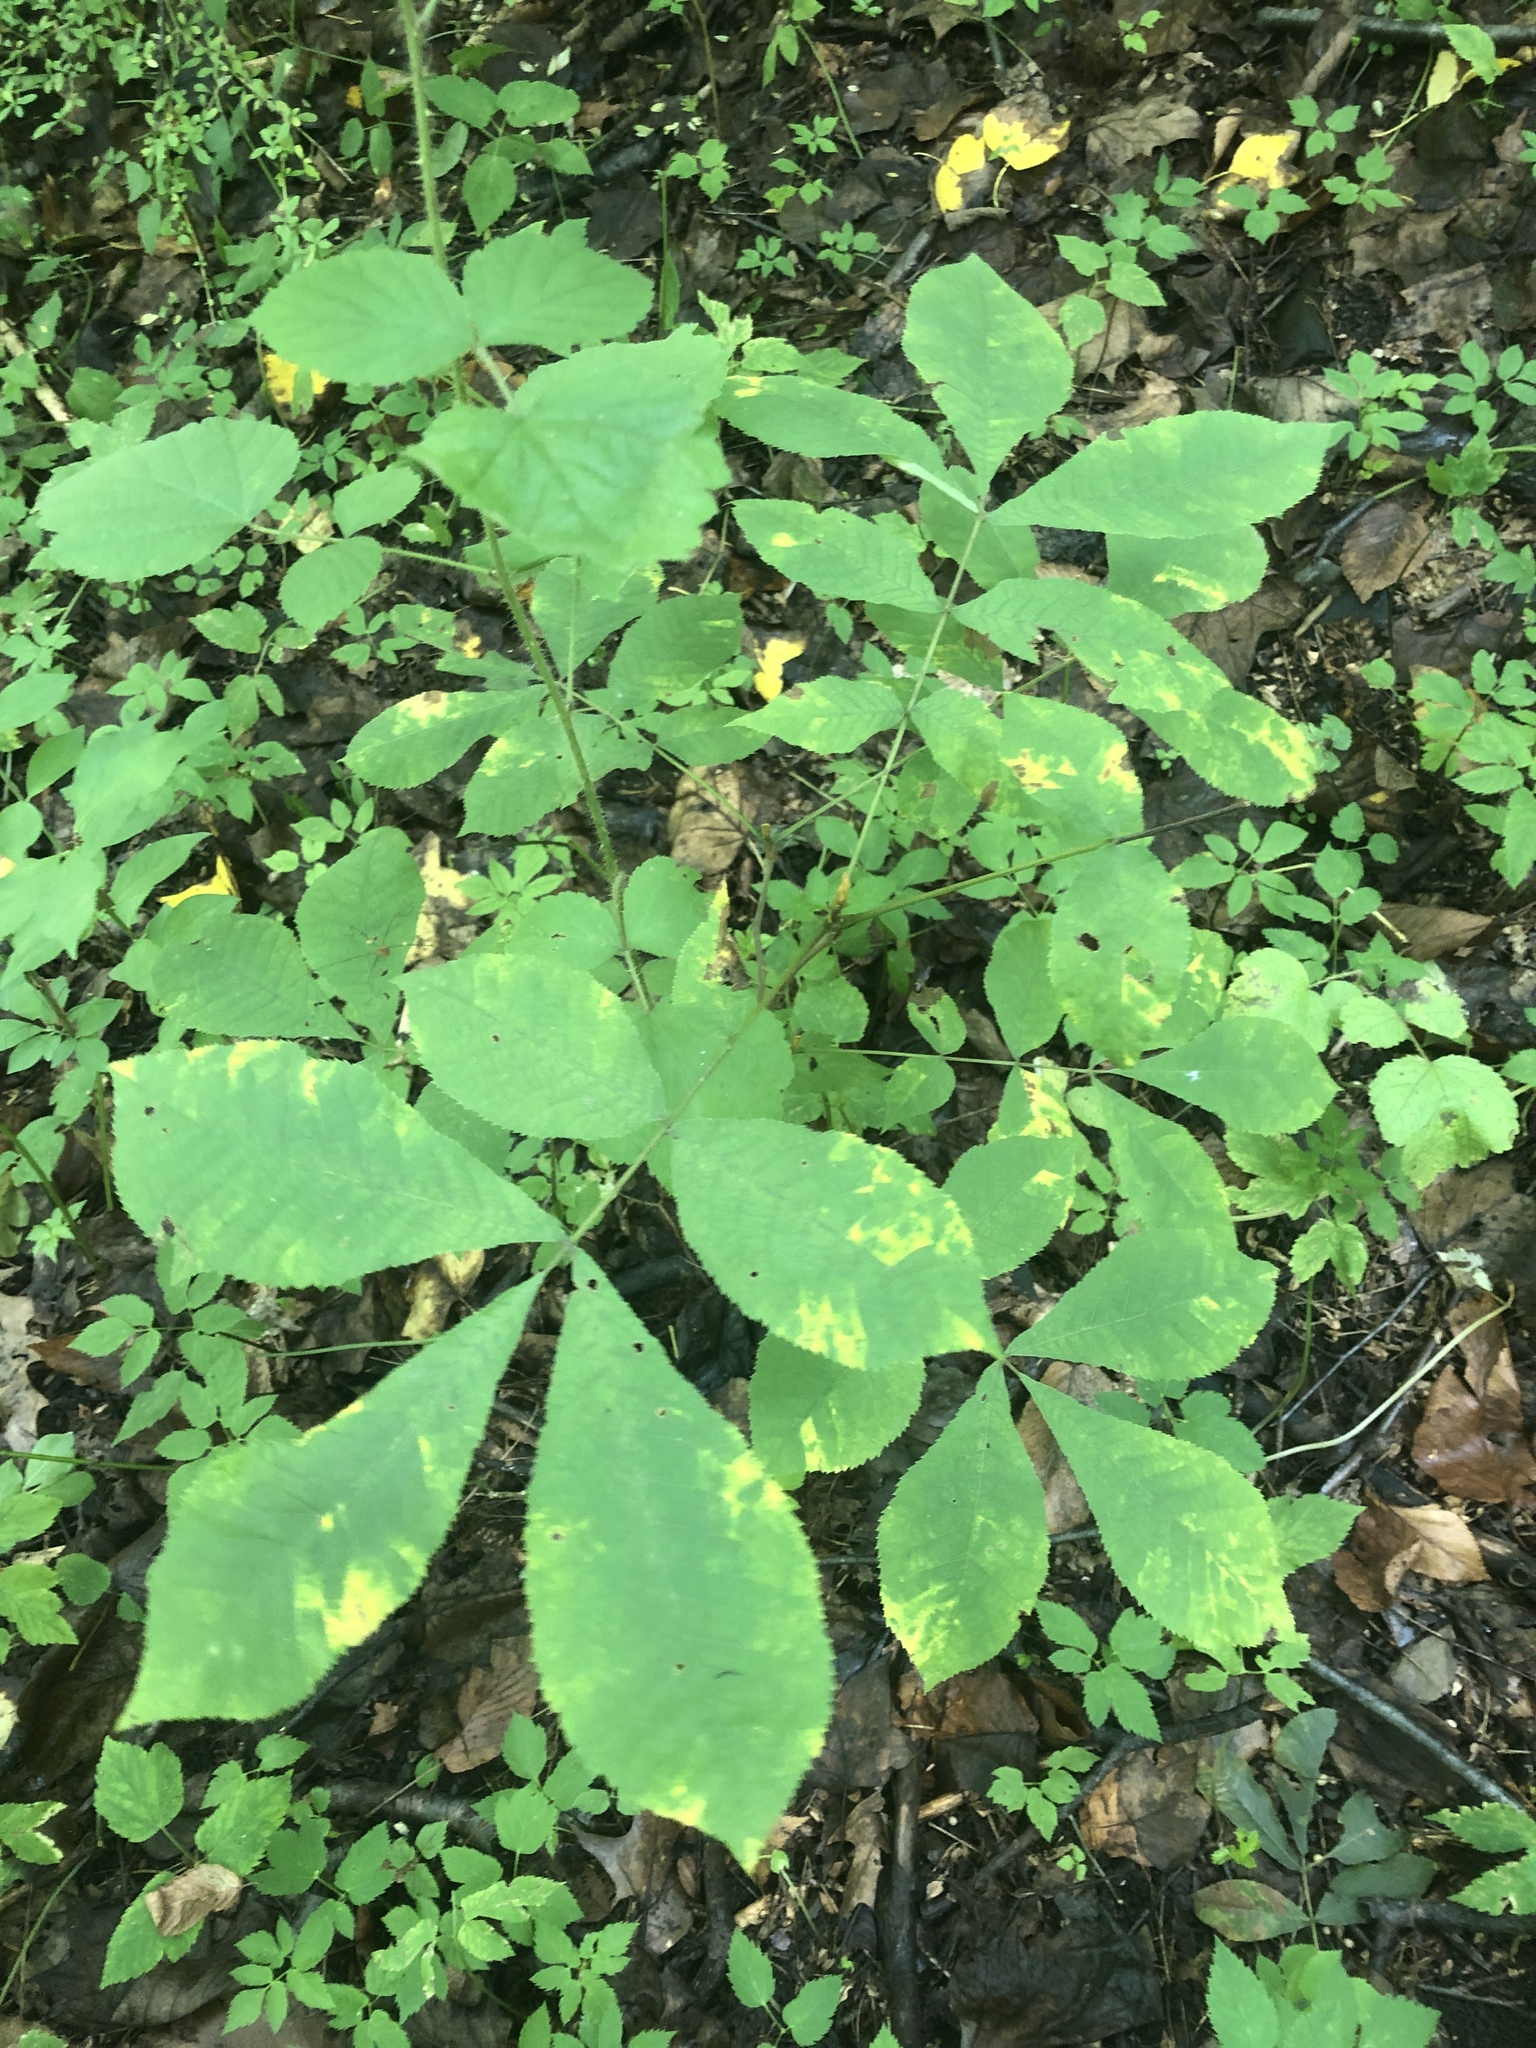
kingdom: Plantae
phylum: Tracheophyta
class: Magnoliopsida
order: Fagales
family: Juglandaceae
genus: Carya
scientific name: Carya cordiformis
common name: Bitternut hickory
